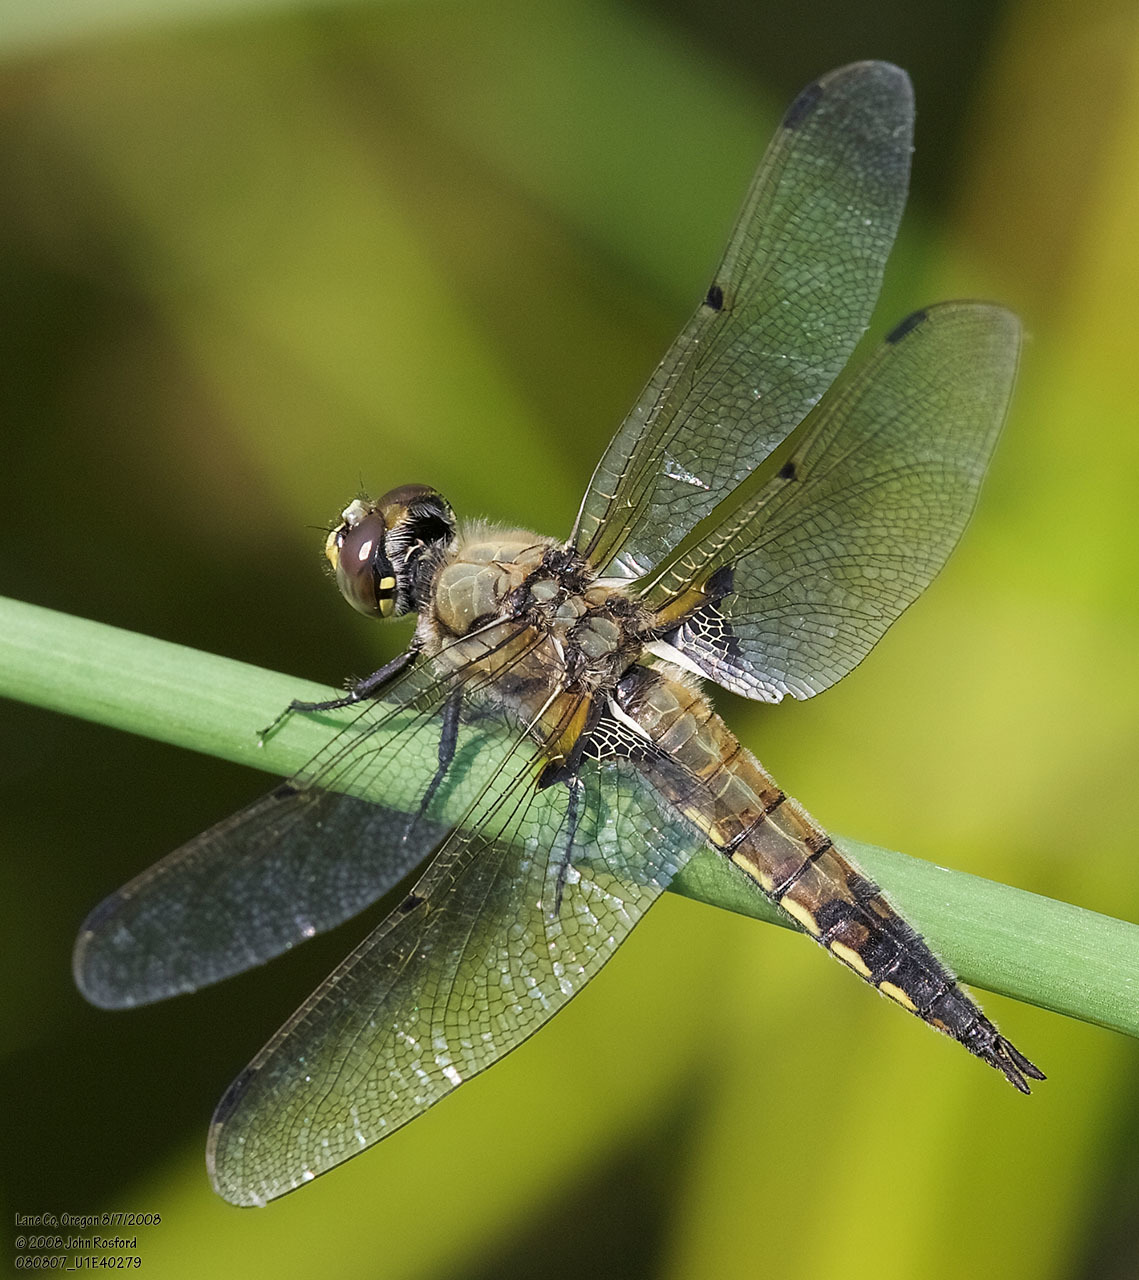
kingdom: Animalia
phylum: Arthropoda
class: Insecta
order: Odonata
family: Libellulidae
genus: Libellula
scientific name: Libellula quadrimaculata
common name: Four-spotted chaser
